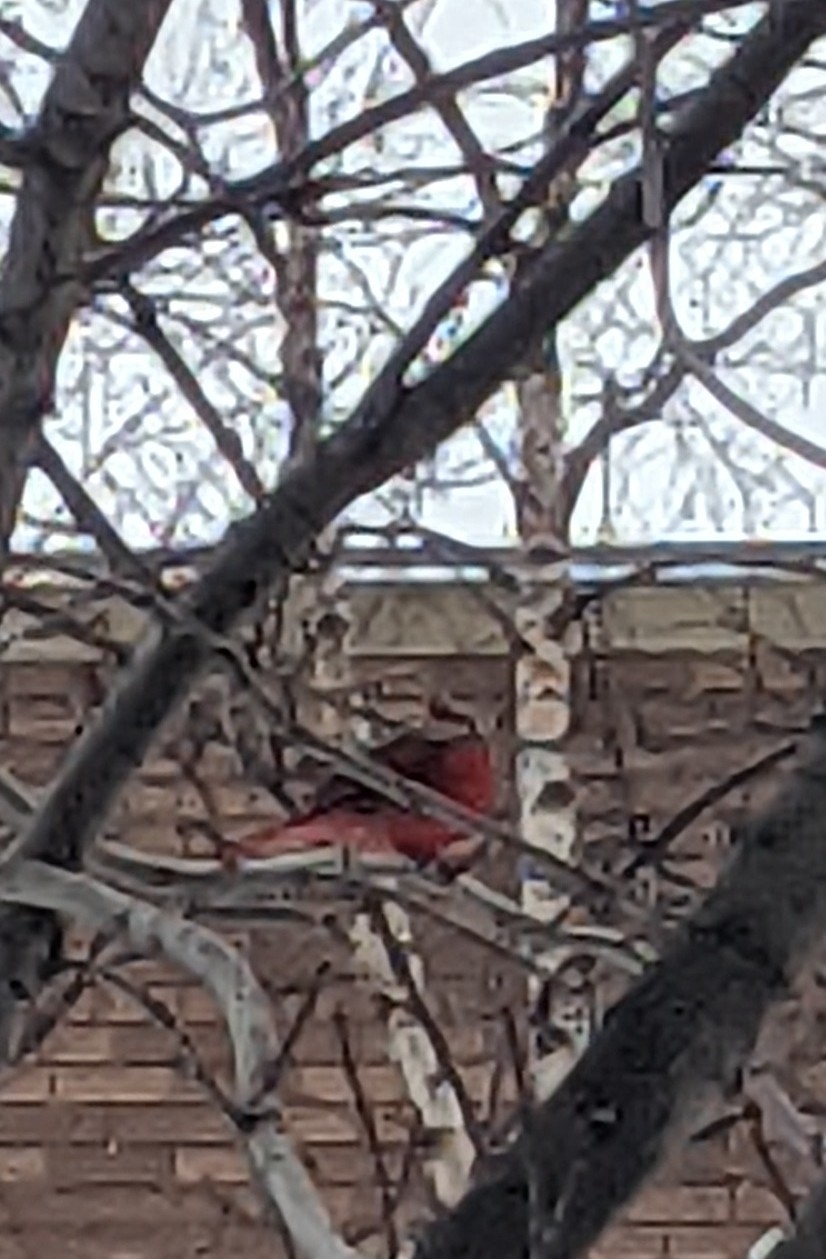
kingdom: Animalia
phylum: Chordata
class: Aves
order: Passeriformes
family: Cardinalidae
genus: Cardinalis
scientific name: Cardinalis cardinalis
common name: Northern cardinal
